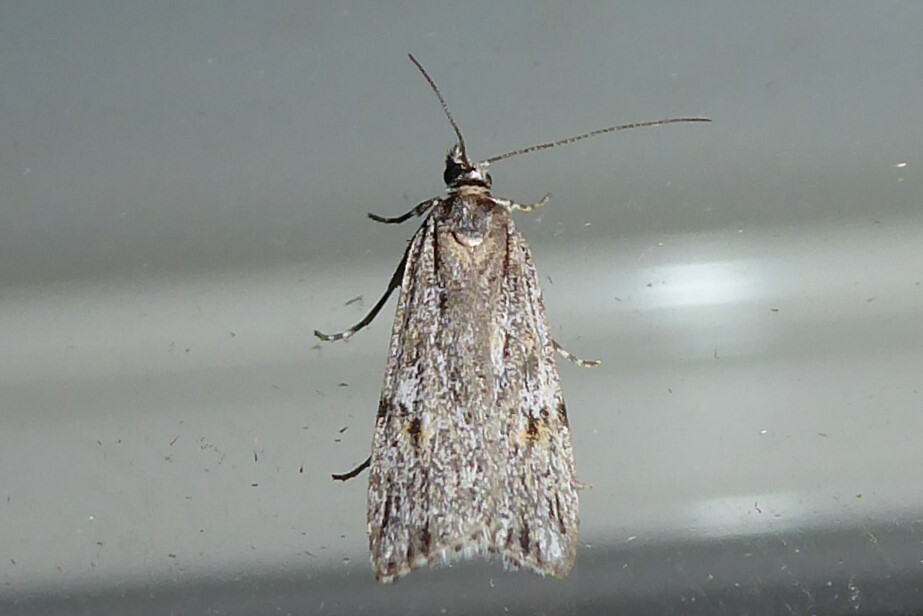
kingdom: Animalia
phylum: Arthropoda
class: Insecta
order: Lepidoptera
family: Crambidae
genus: Scoparia
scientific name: Scoparia chalicodes
